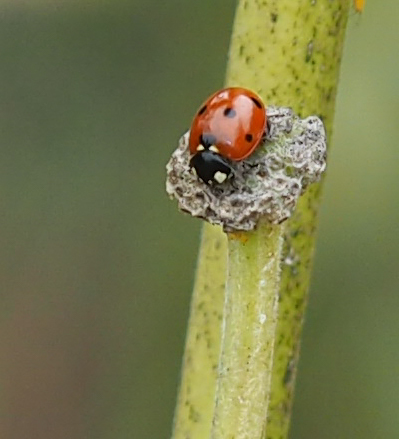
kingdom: Animalia
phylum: Arthropoda
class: Insecta
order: Coleoptera
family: Coccinellidae
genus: Coccinella
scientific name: Coccinella septempunctata
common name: Sevenspotted lady beetle
